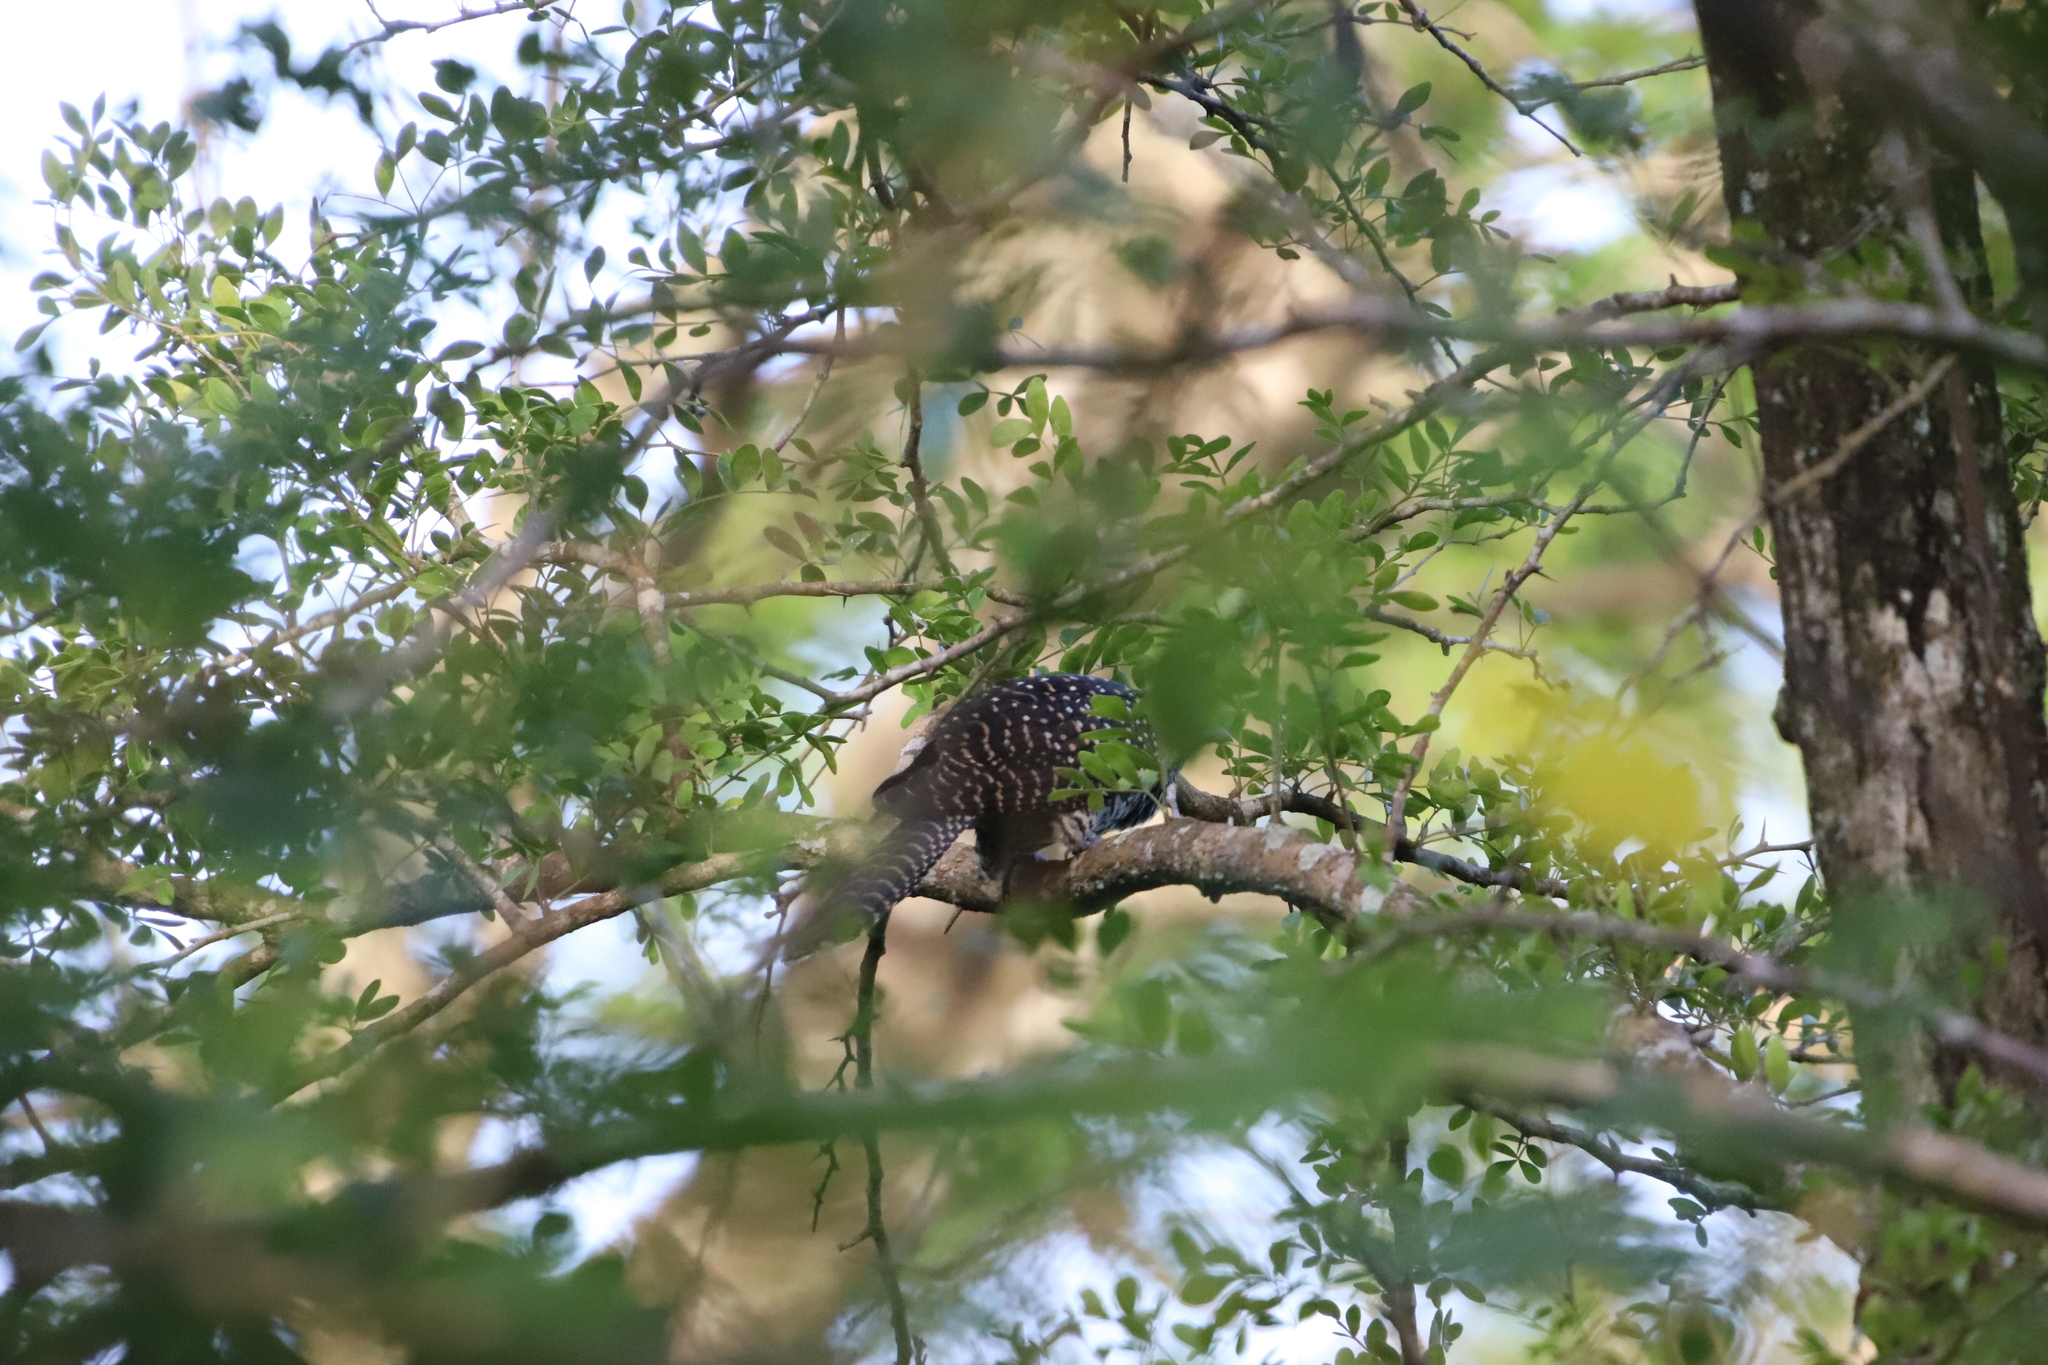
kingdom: Animalia
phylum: Chordata
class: Aves
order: Cuculiformes
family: Cuculidae
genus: Eudynamys
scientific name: Eudynamys scolopaceus
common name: Asian koel
